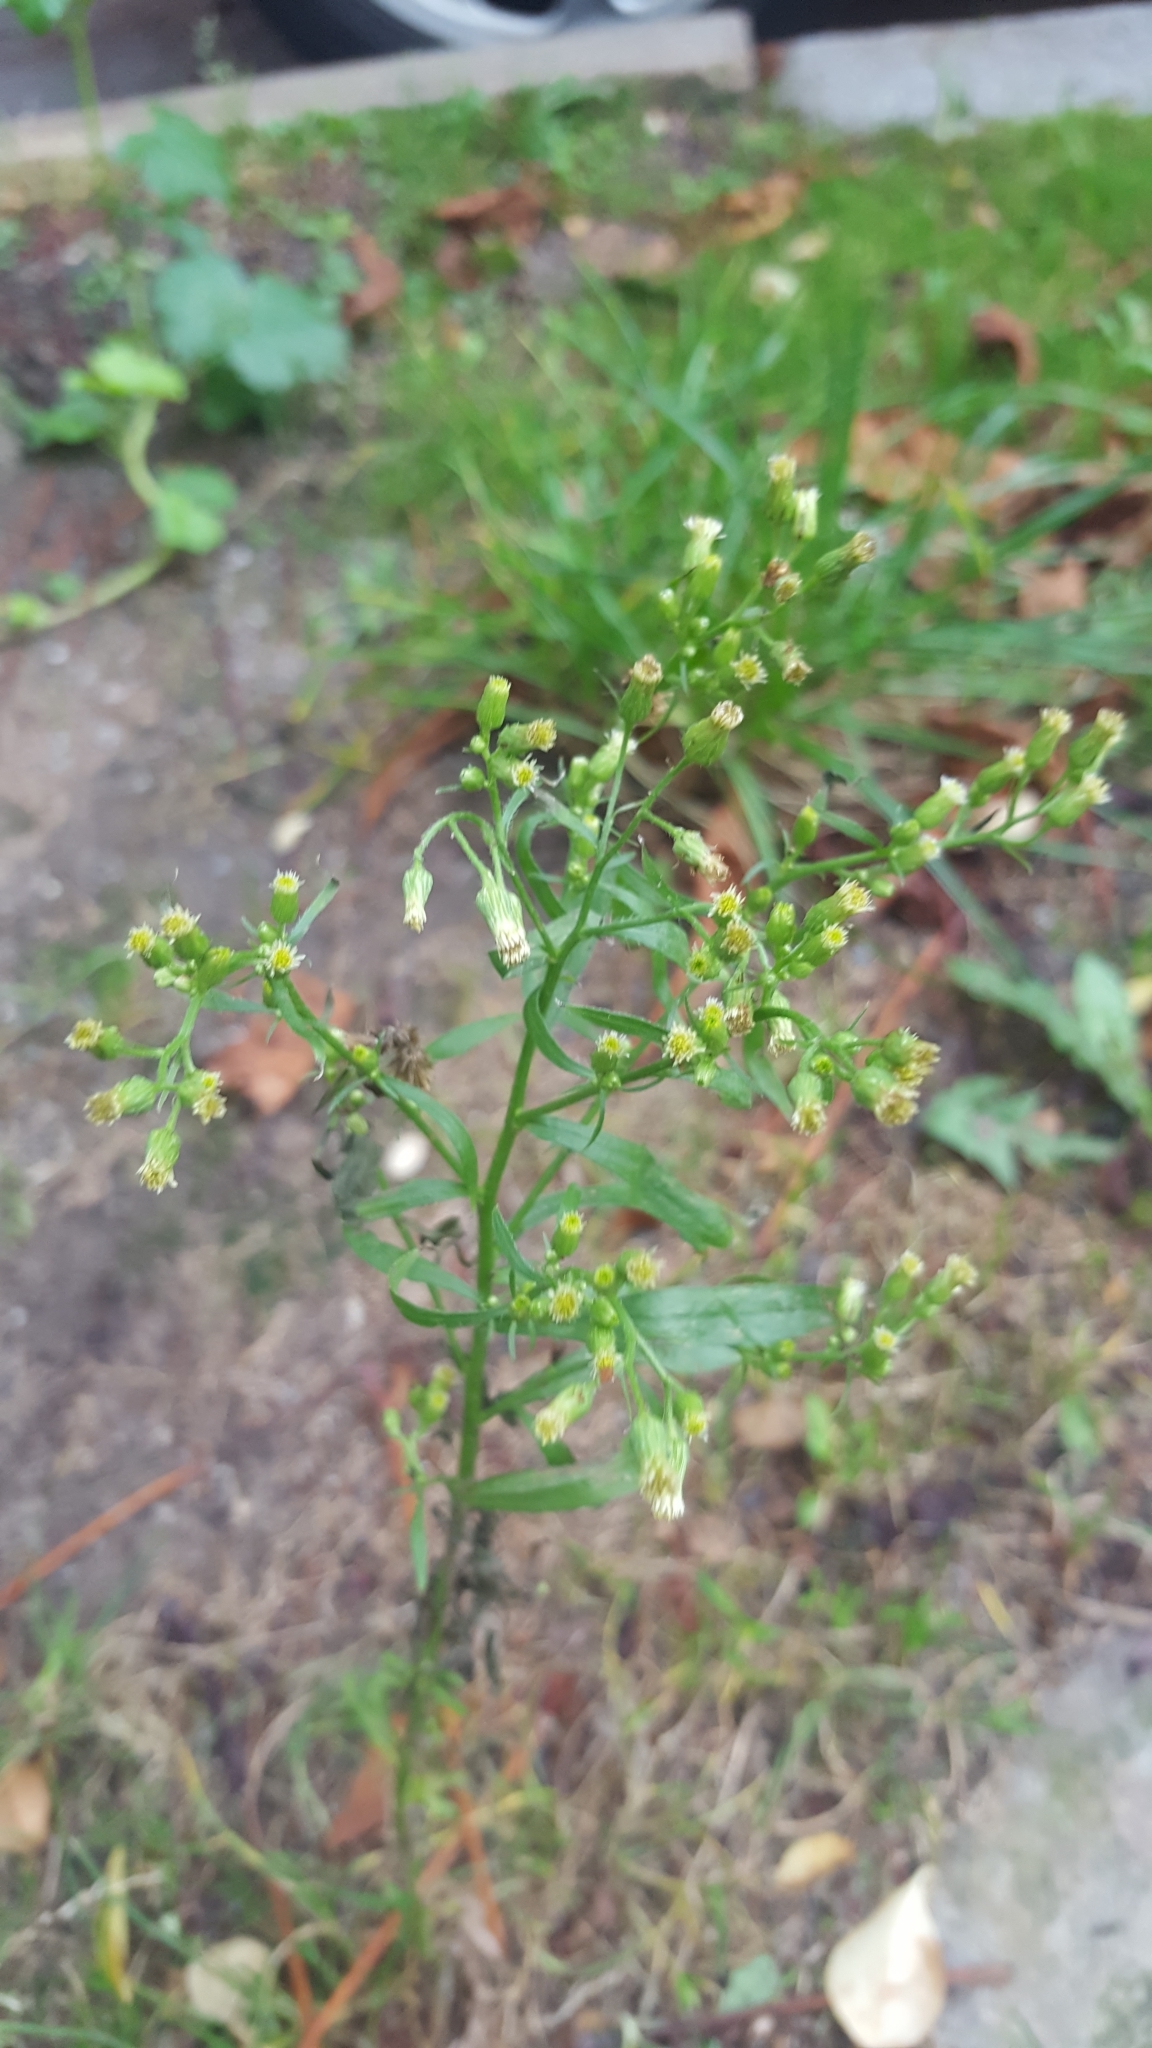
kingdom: Plantae
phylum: Tracheophyta
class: Magnoliopsida
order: Asterales
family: Asteraceae
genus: Erigeron
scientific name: Erigeron canadensis
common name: Canadian fleabane
